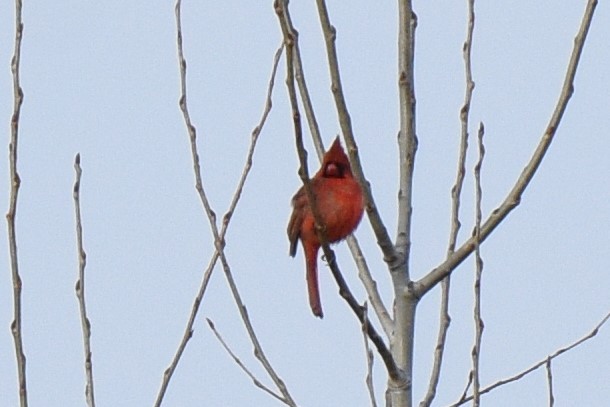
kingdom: Animalia
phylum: Chordata
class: Aves
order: Passeriformes
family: Cardinalidae
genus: Cardinalis
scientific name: Cardinalis cardinalis
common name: Northern cardinal
